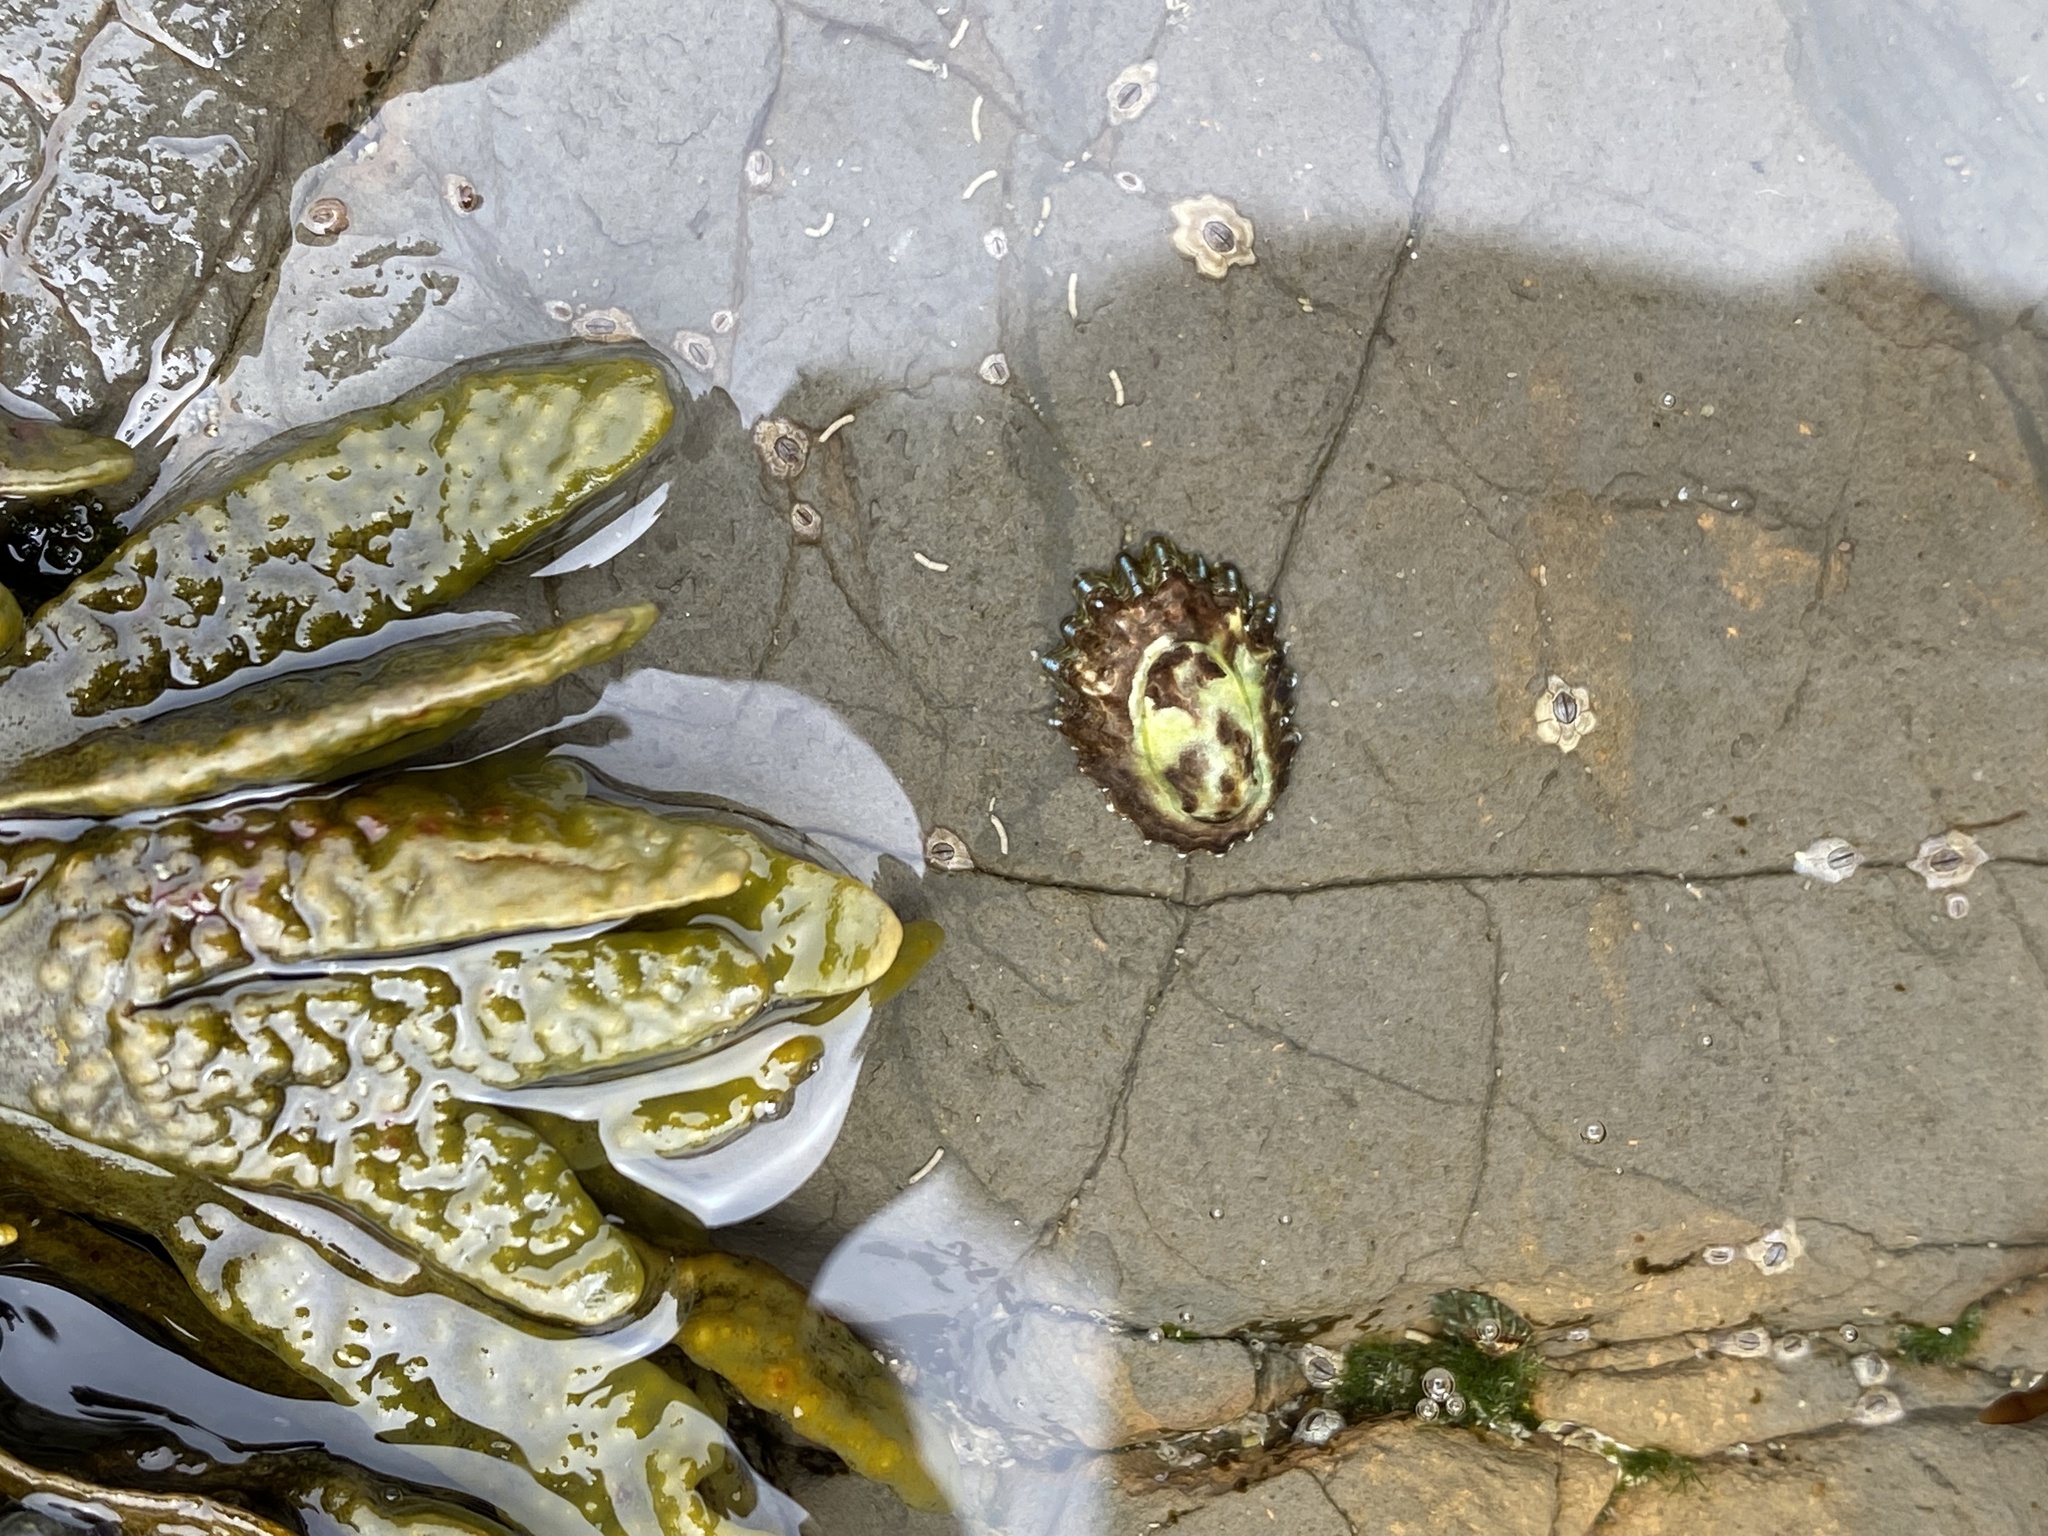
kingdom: Animalia
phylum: Mollusca
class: Gastropoda
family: Lottiidae
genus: Lottia
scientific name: Lottia scabra
